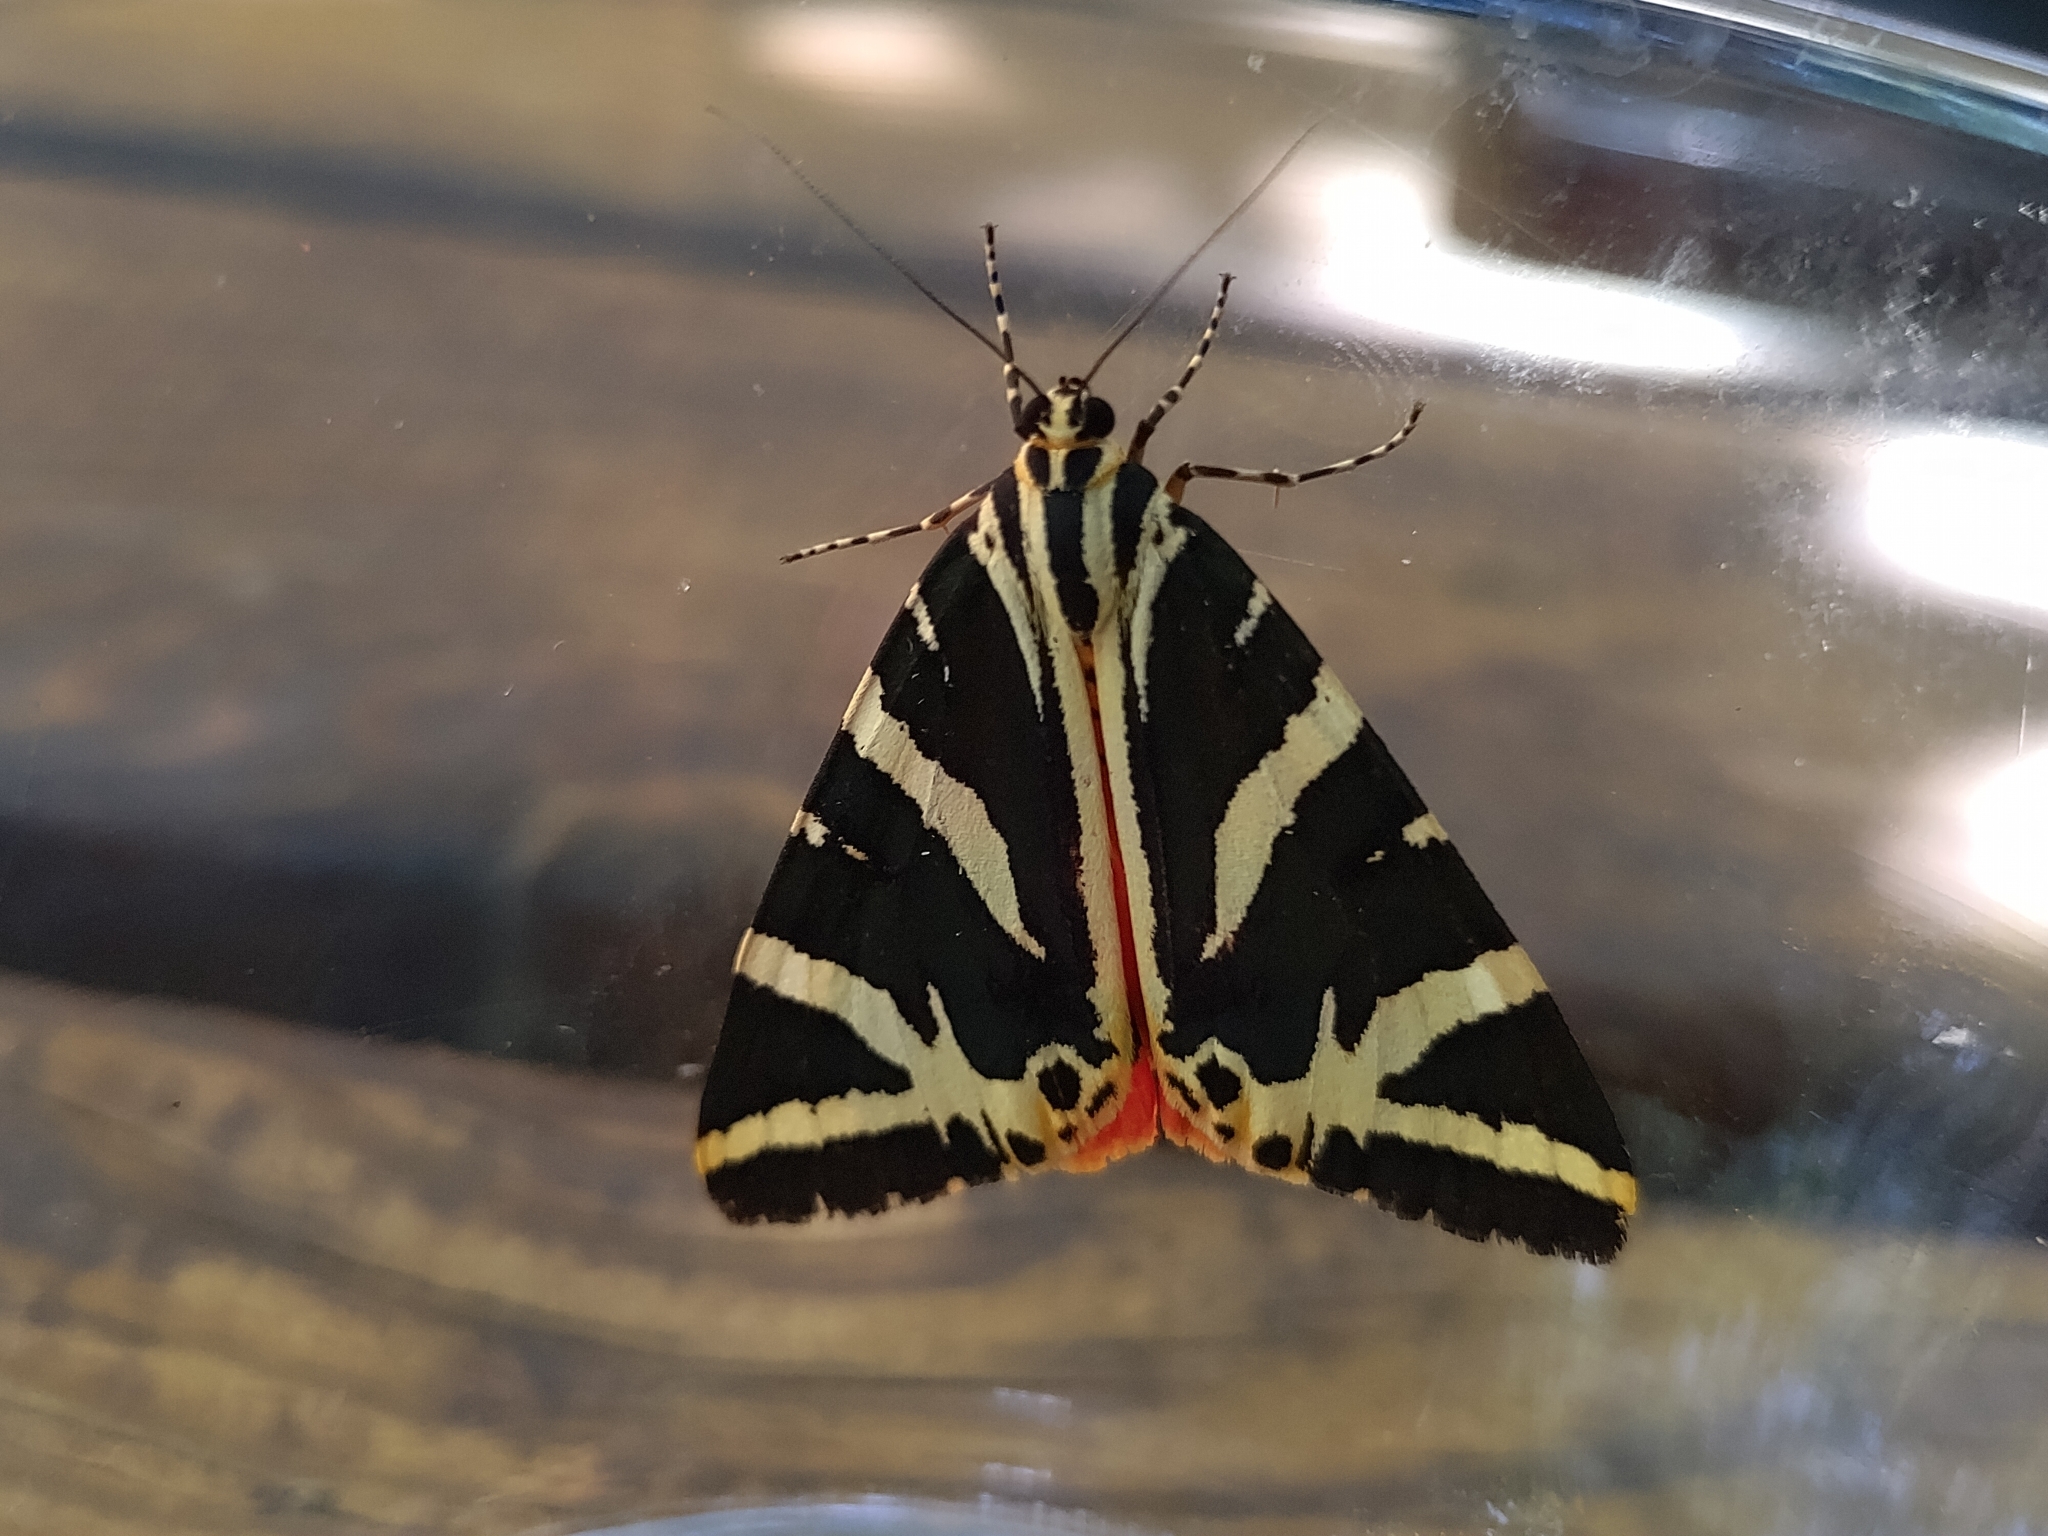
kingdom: Animalia
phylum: Arthropoda
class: Insecta
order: Lepidoptera
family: Erebidae
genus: Euplagia
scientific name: Euplagia quadripunctaria
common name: Jersey tiger
